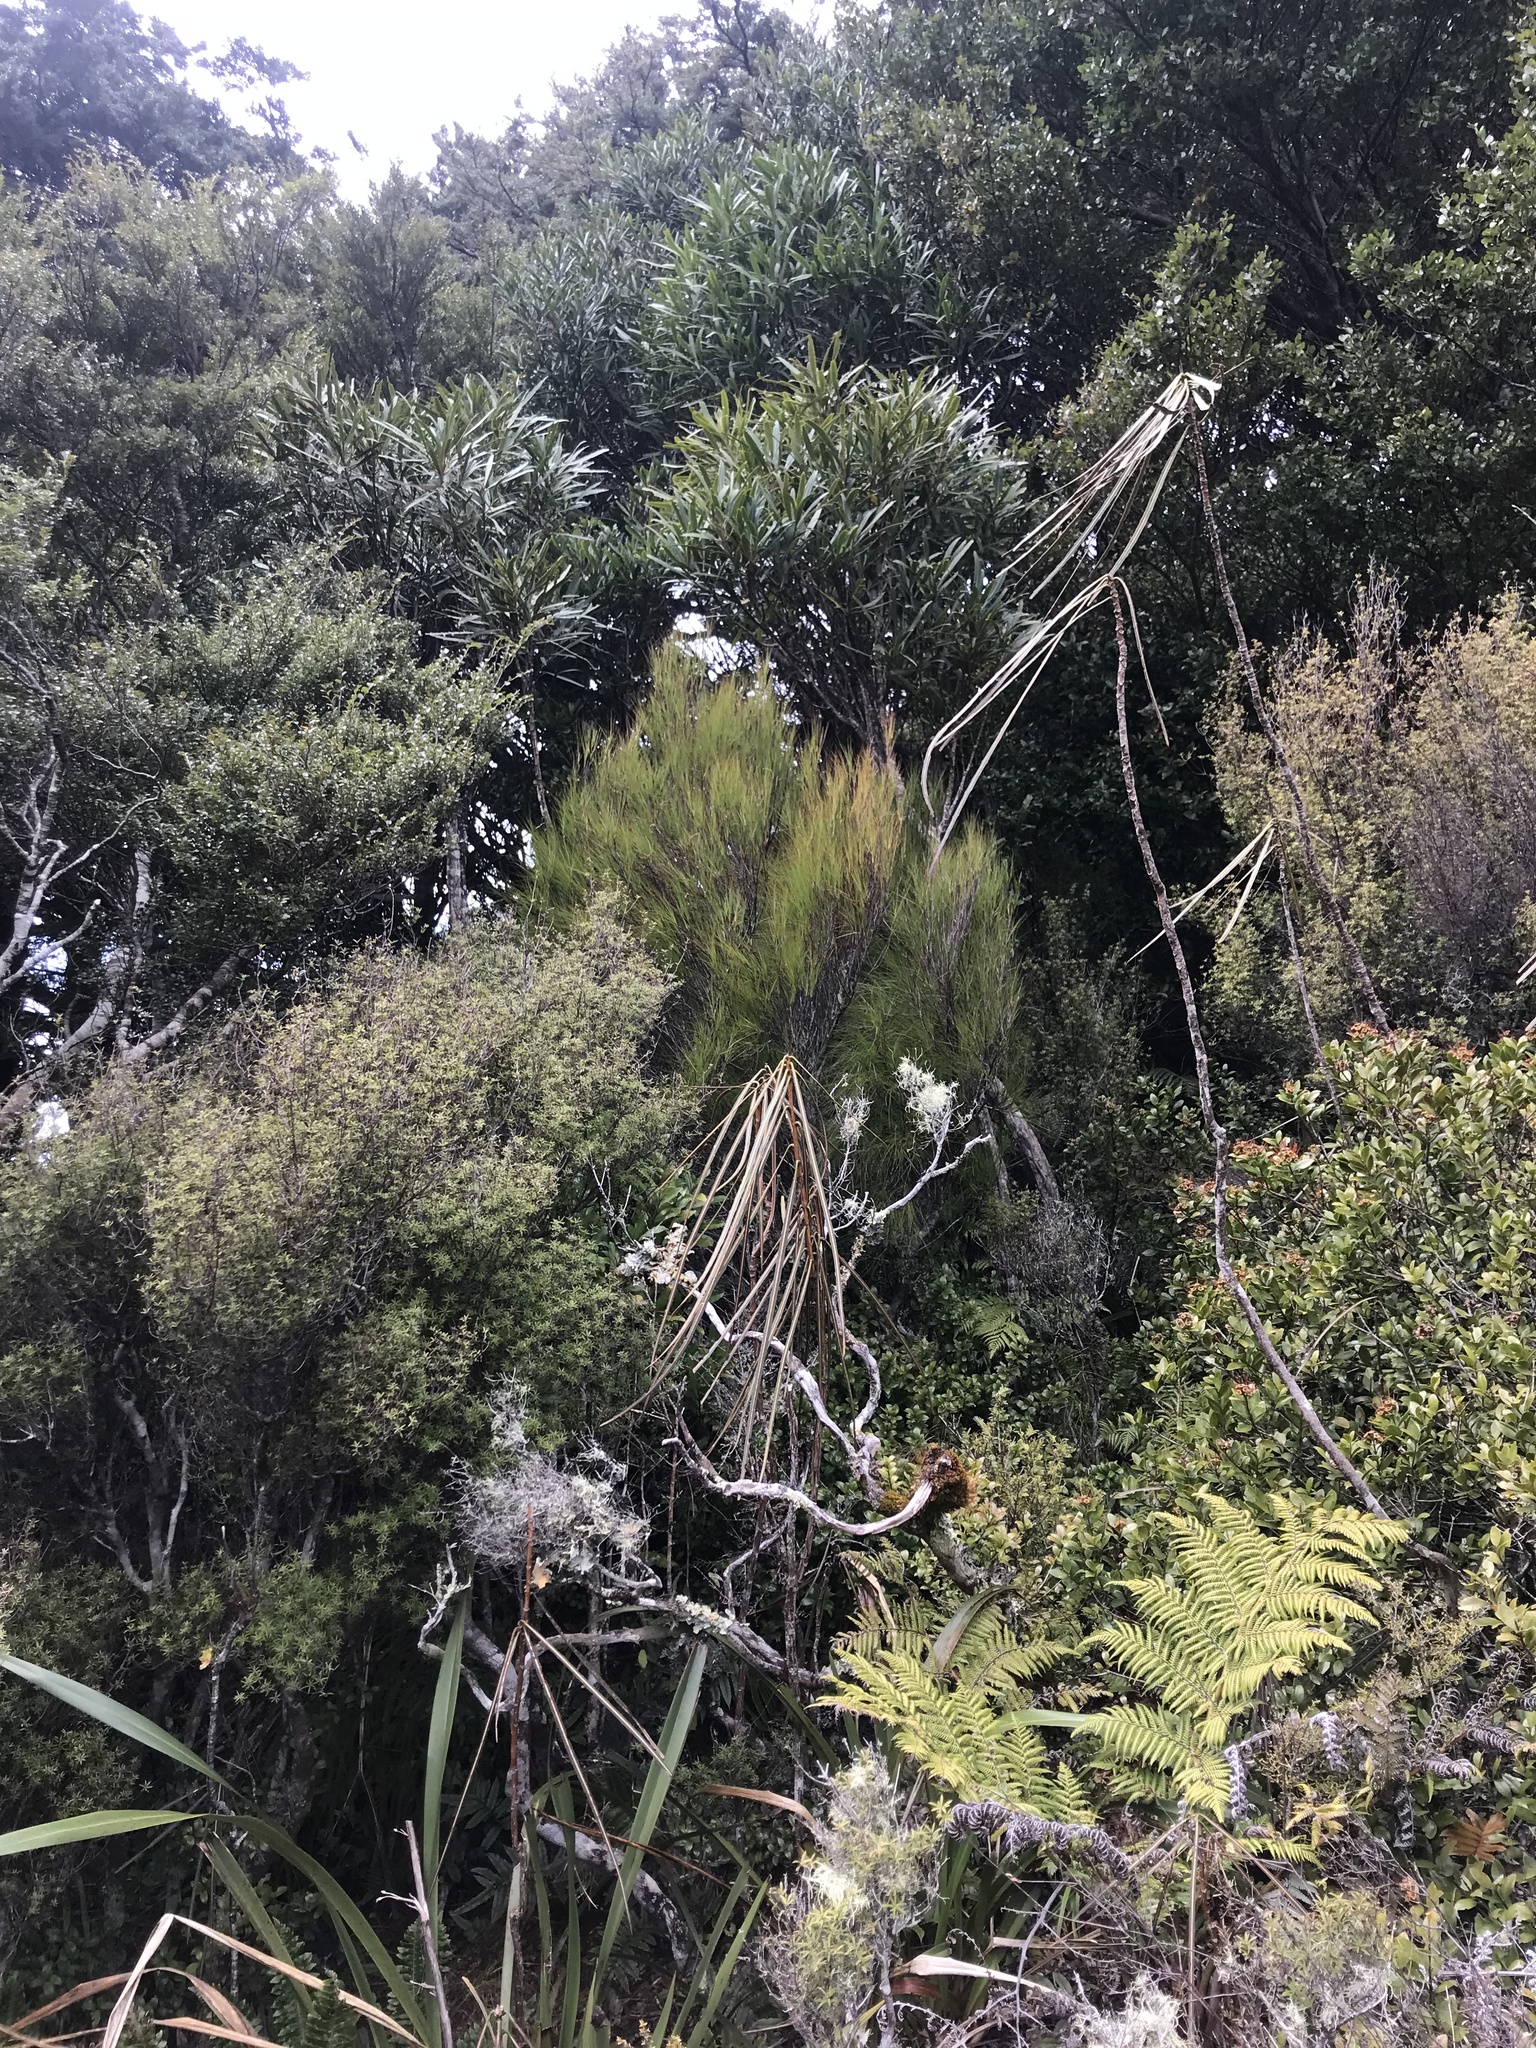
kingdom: Plantae
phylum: Tracheophyta
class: Magnoliopsida
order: Ericales
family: Ericaceae
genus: Dracophyllum
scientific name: Dracophyllum filifolium
